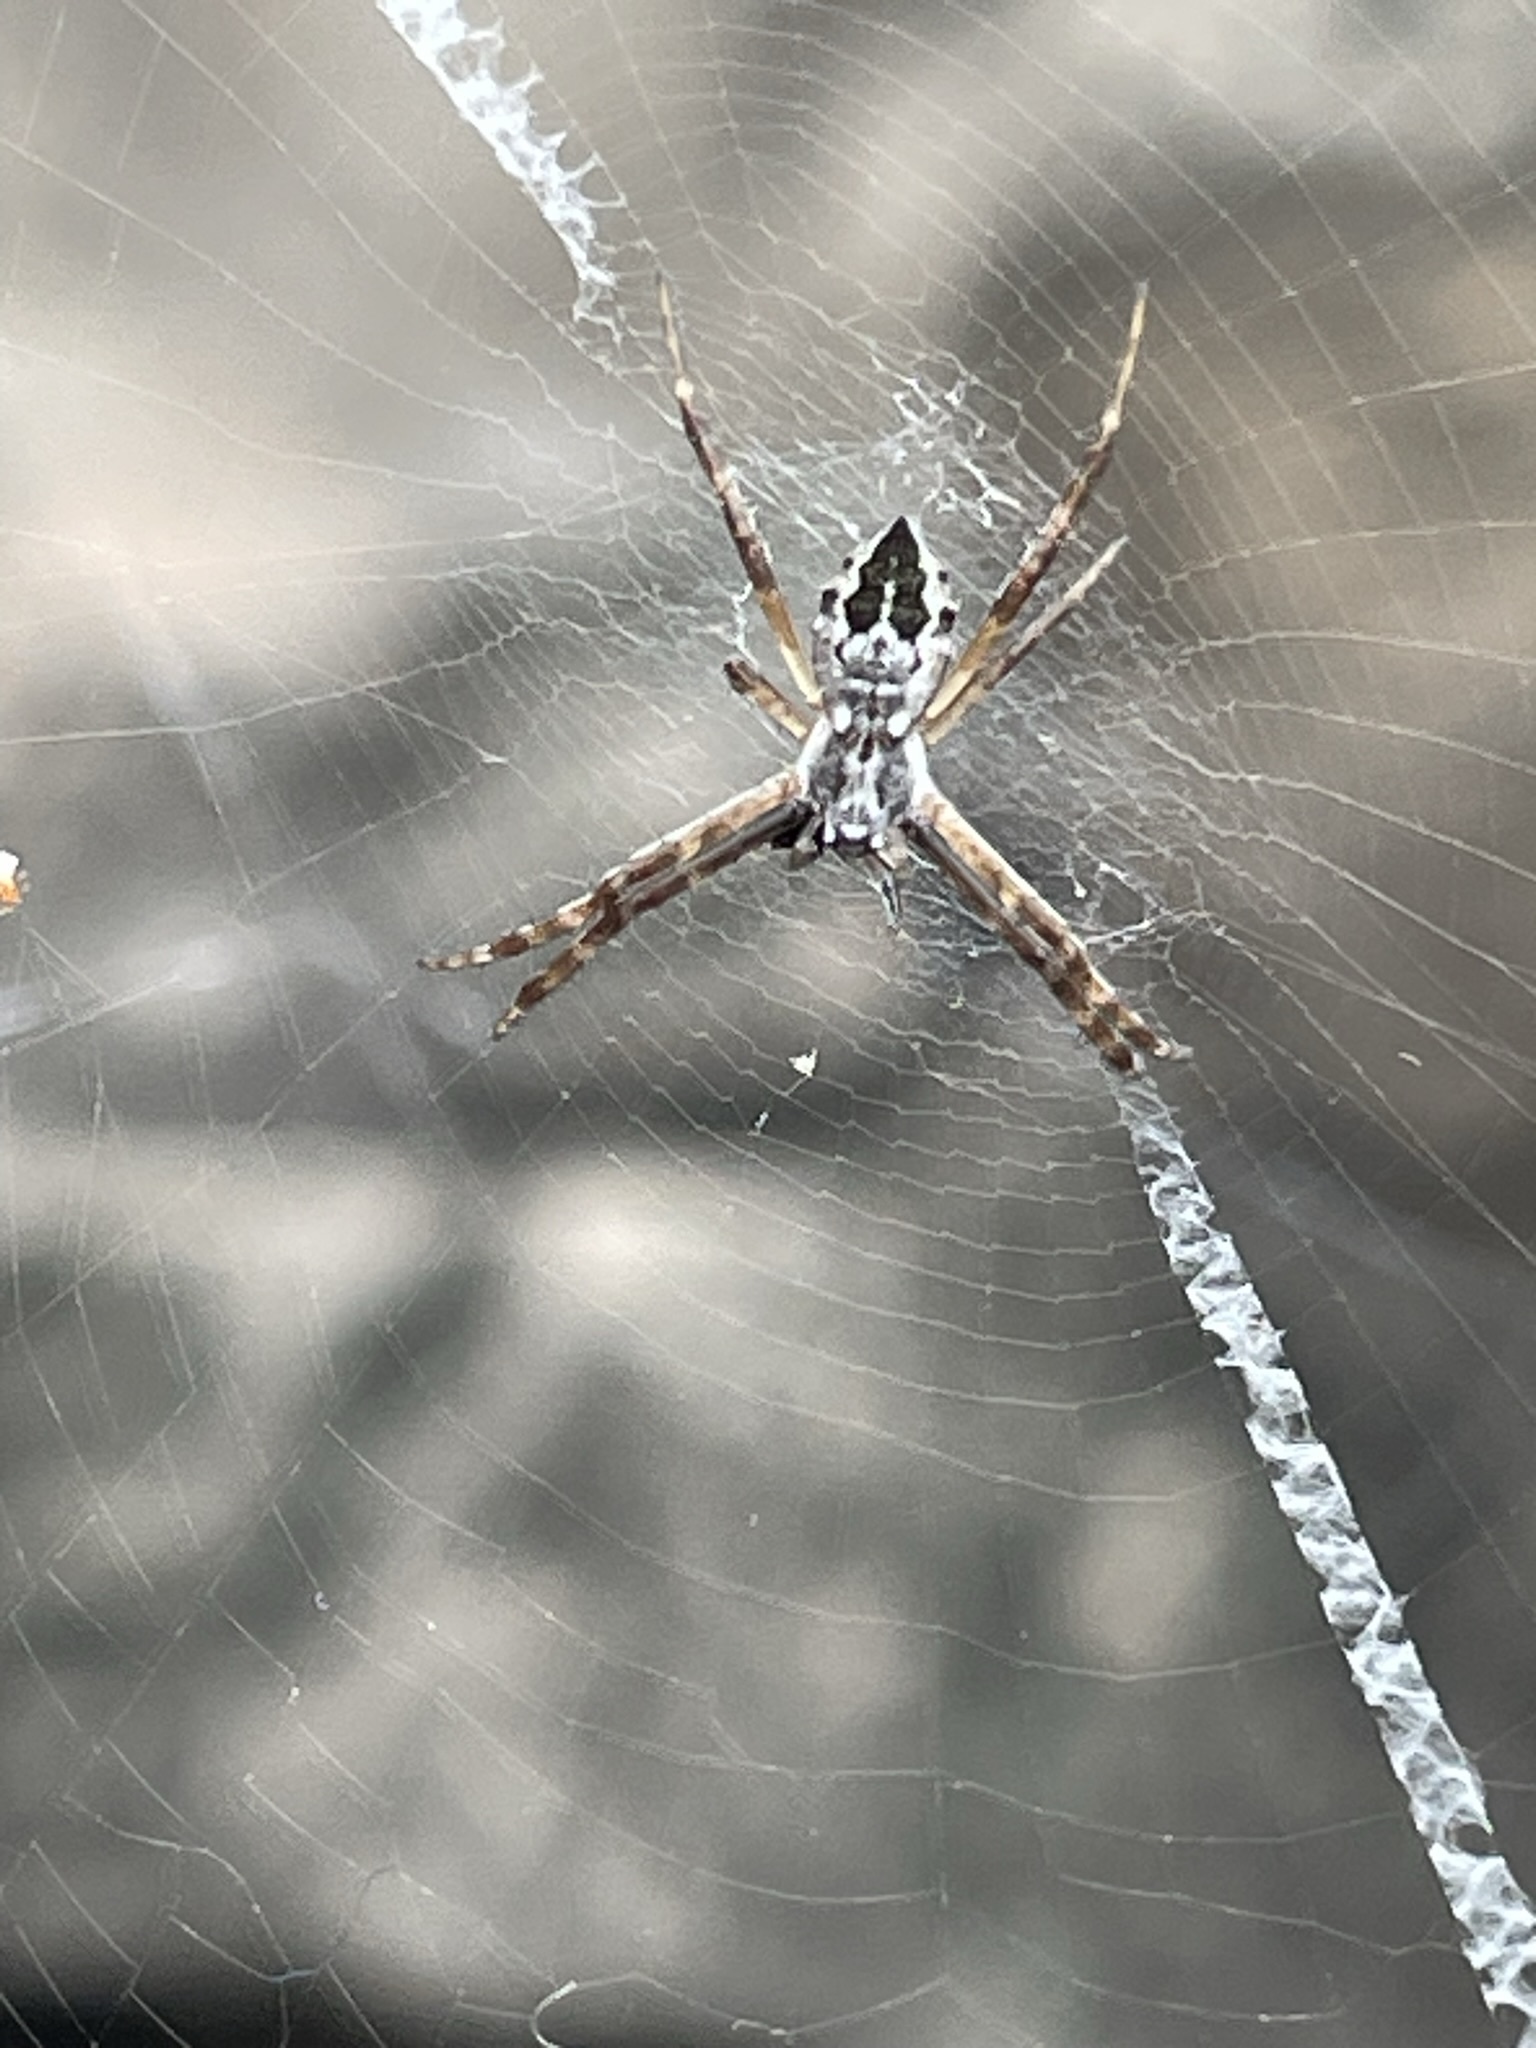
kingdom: Animalia
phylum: Arthropoda
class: Arachnida
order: Araneae
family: Araneidae
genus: Argiope
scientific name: Argiope argentata
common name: Orb weavers
